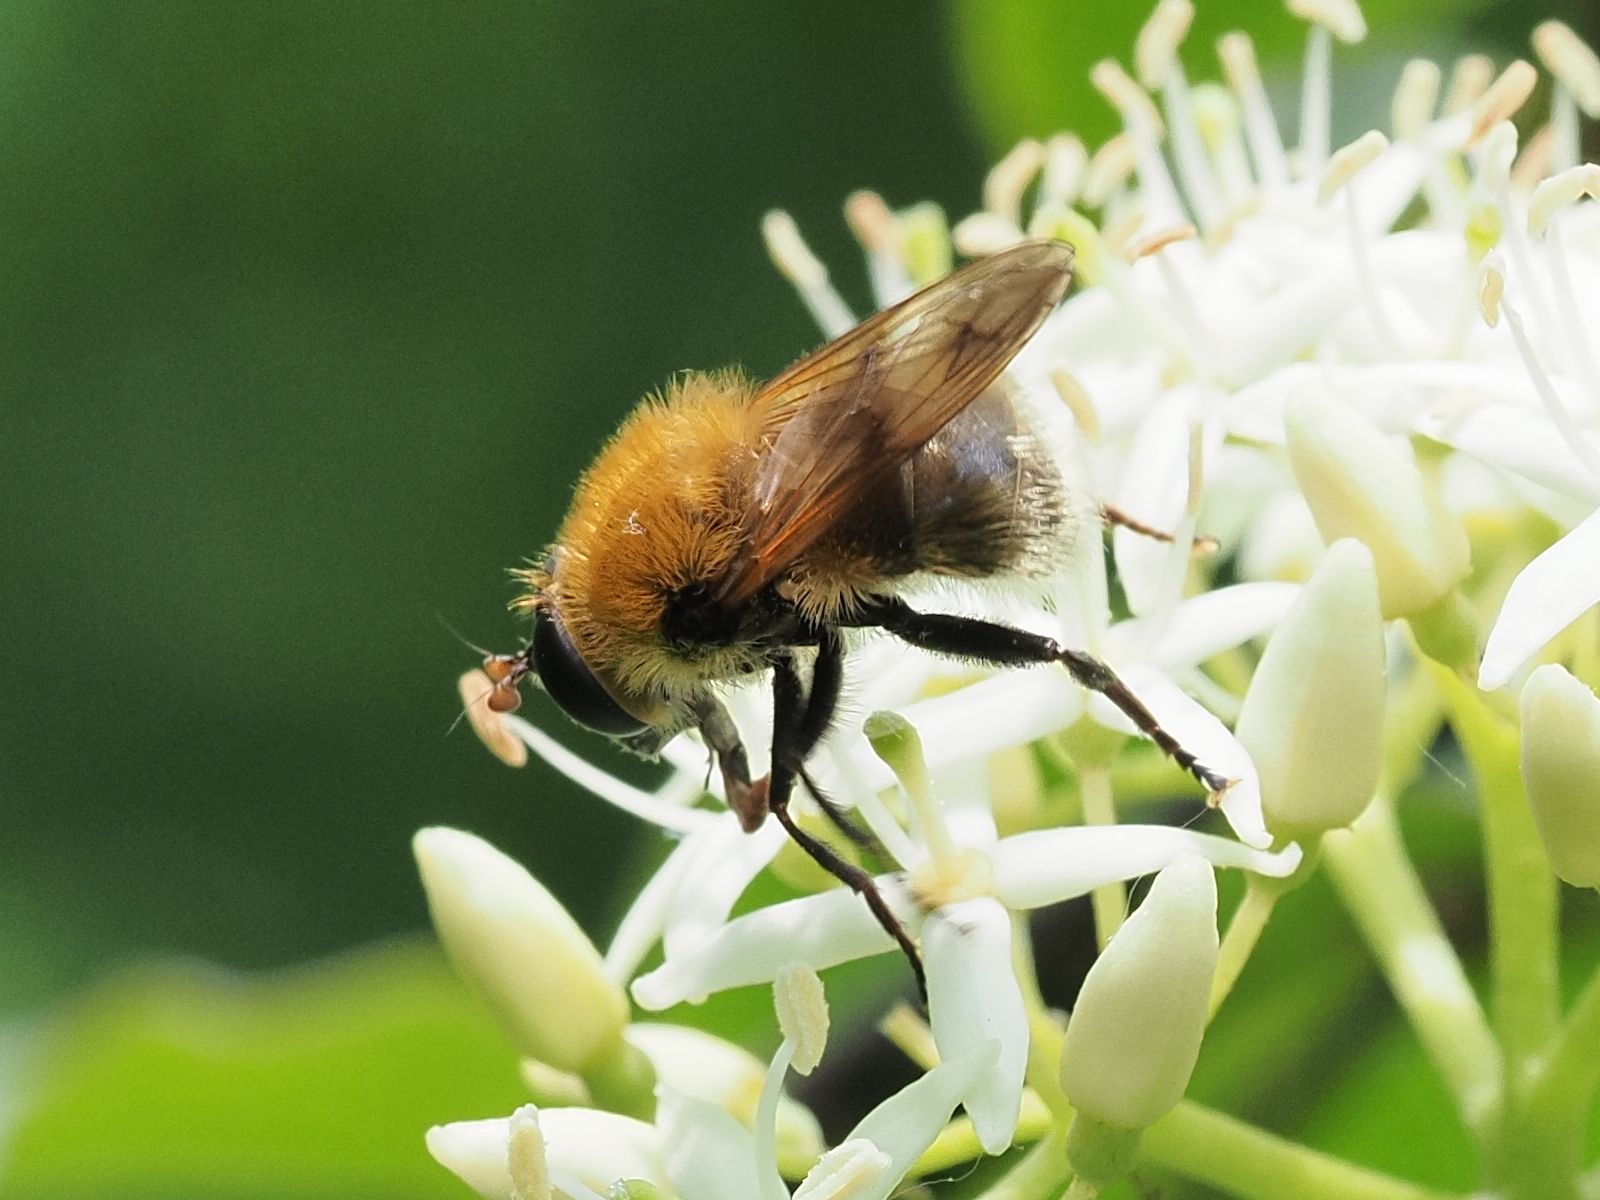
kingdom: Animalia
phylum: Arthropoda
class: Insecta
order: Diptera
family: Syrphidae
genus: Criorhina
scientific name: Criorhina berberina
